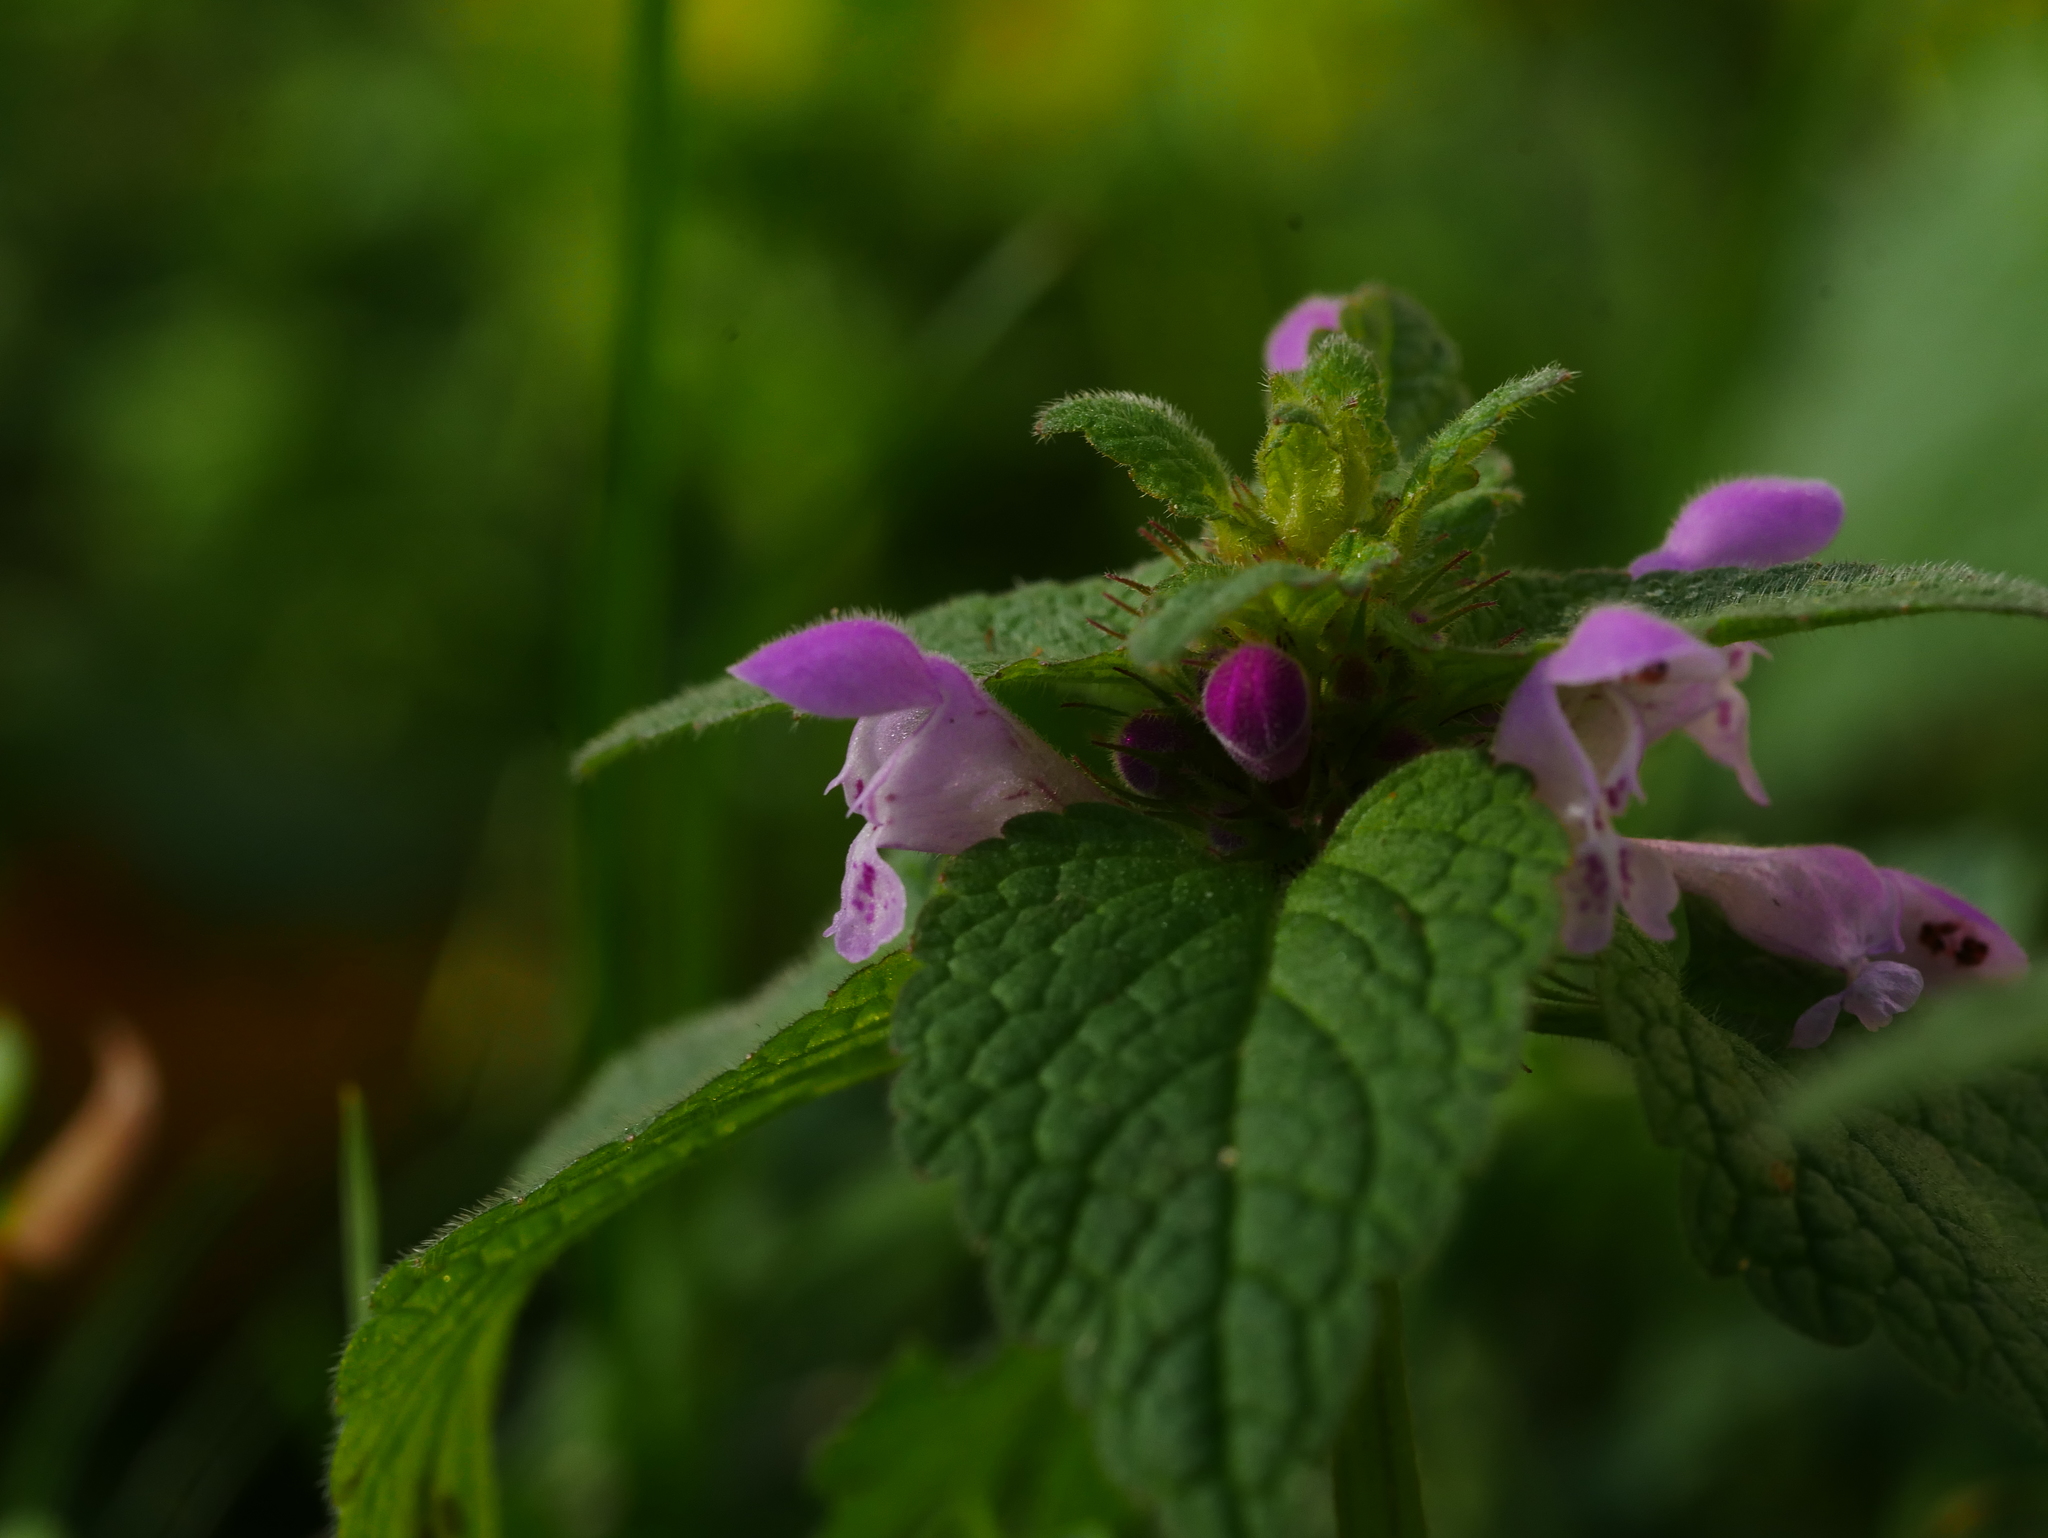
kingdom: Plantae
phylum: Tracheophyta
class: Magnoliopsida
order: Lamiales
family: Lamiaceae
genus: Lamium
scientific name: Lamium purpureum
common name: Red dead-nettle
